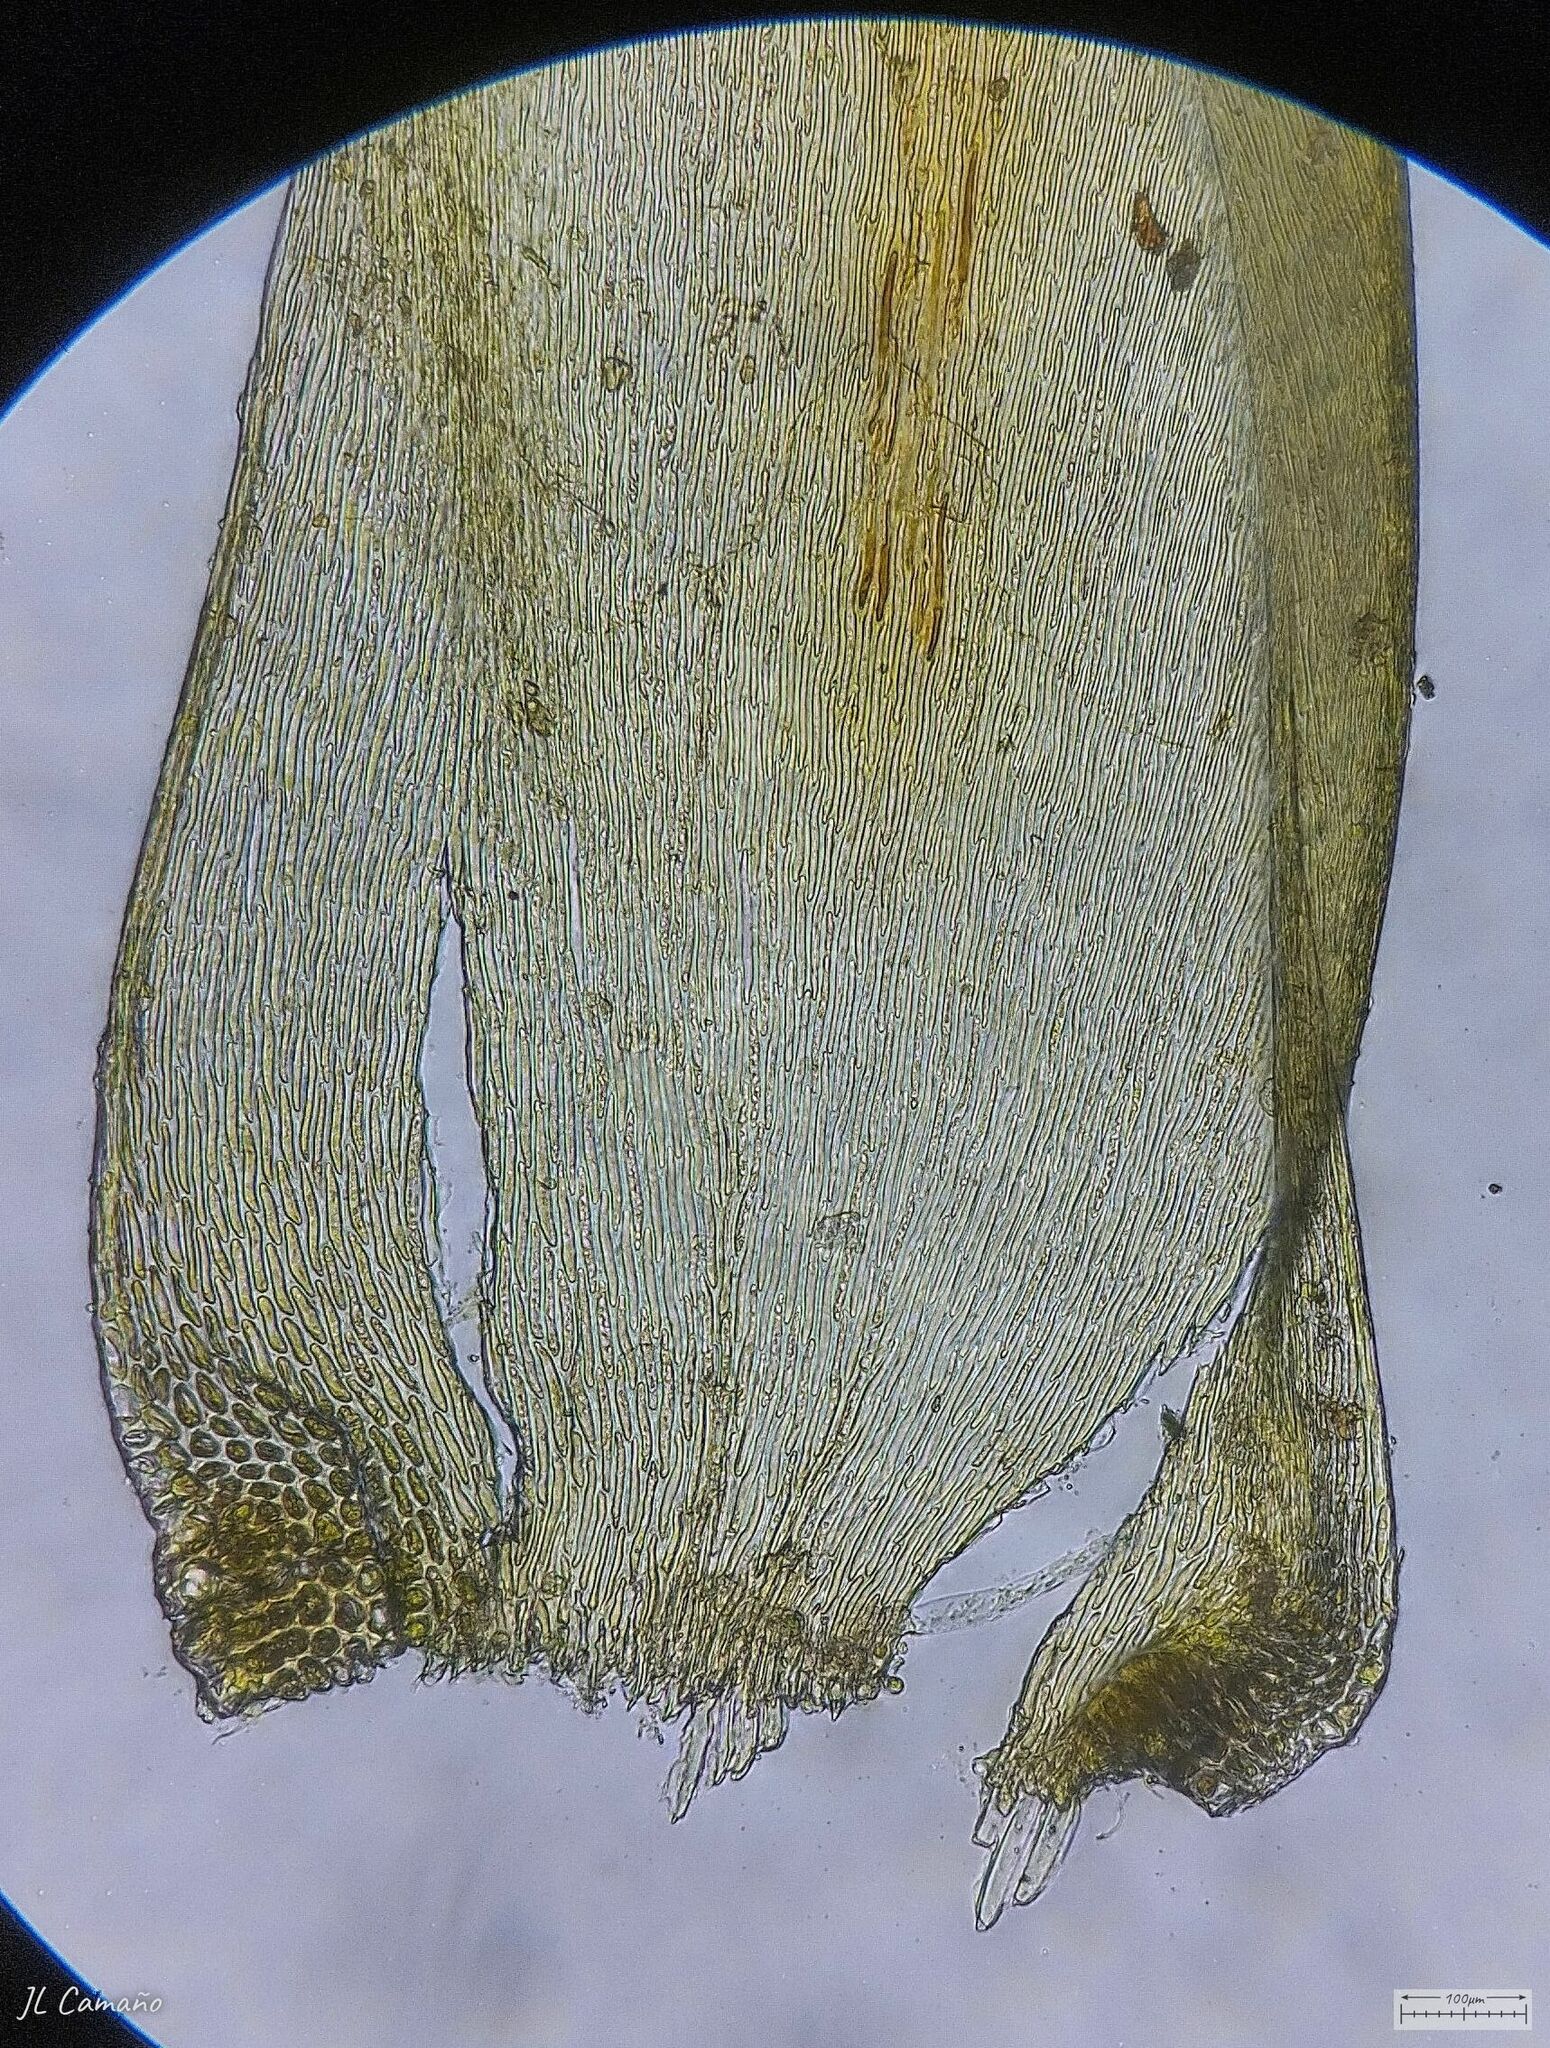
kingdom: Plantae
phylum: Bryophyta
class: Bryopsida
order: Hypnales
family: Hypnaceae
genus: Hypnum
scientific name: Hypnum cupressiforme
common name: Cypress-leaved plait-moss
